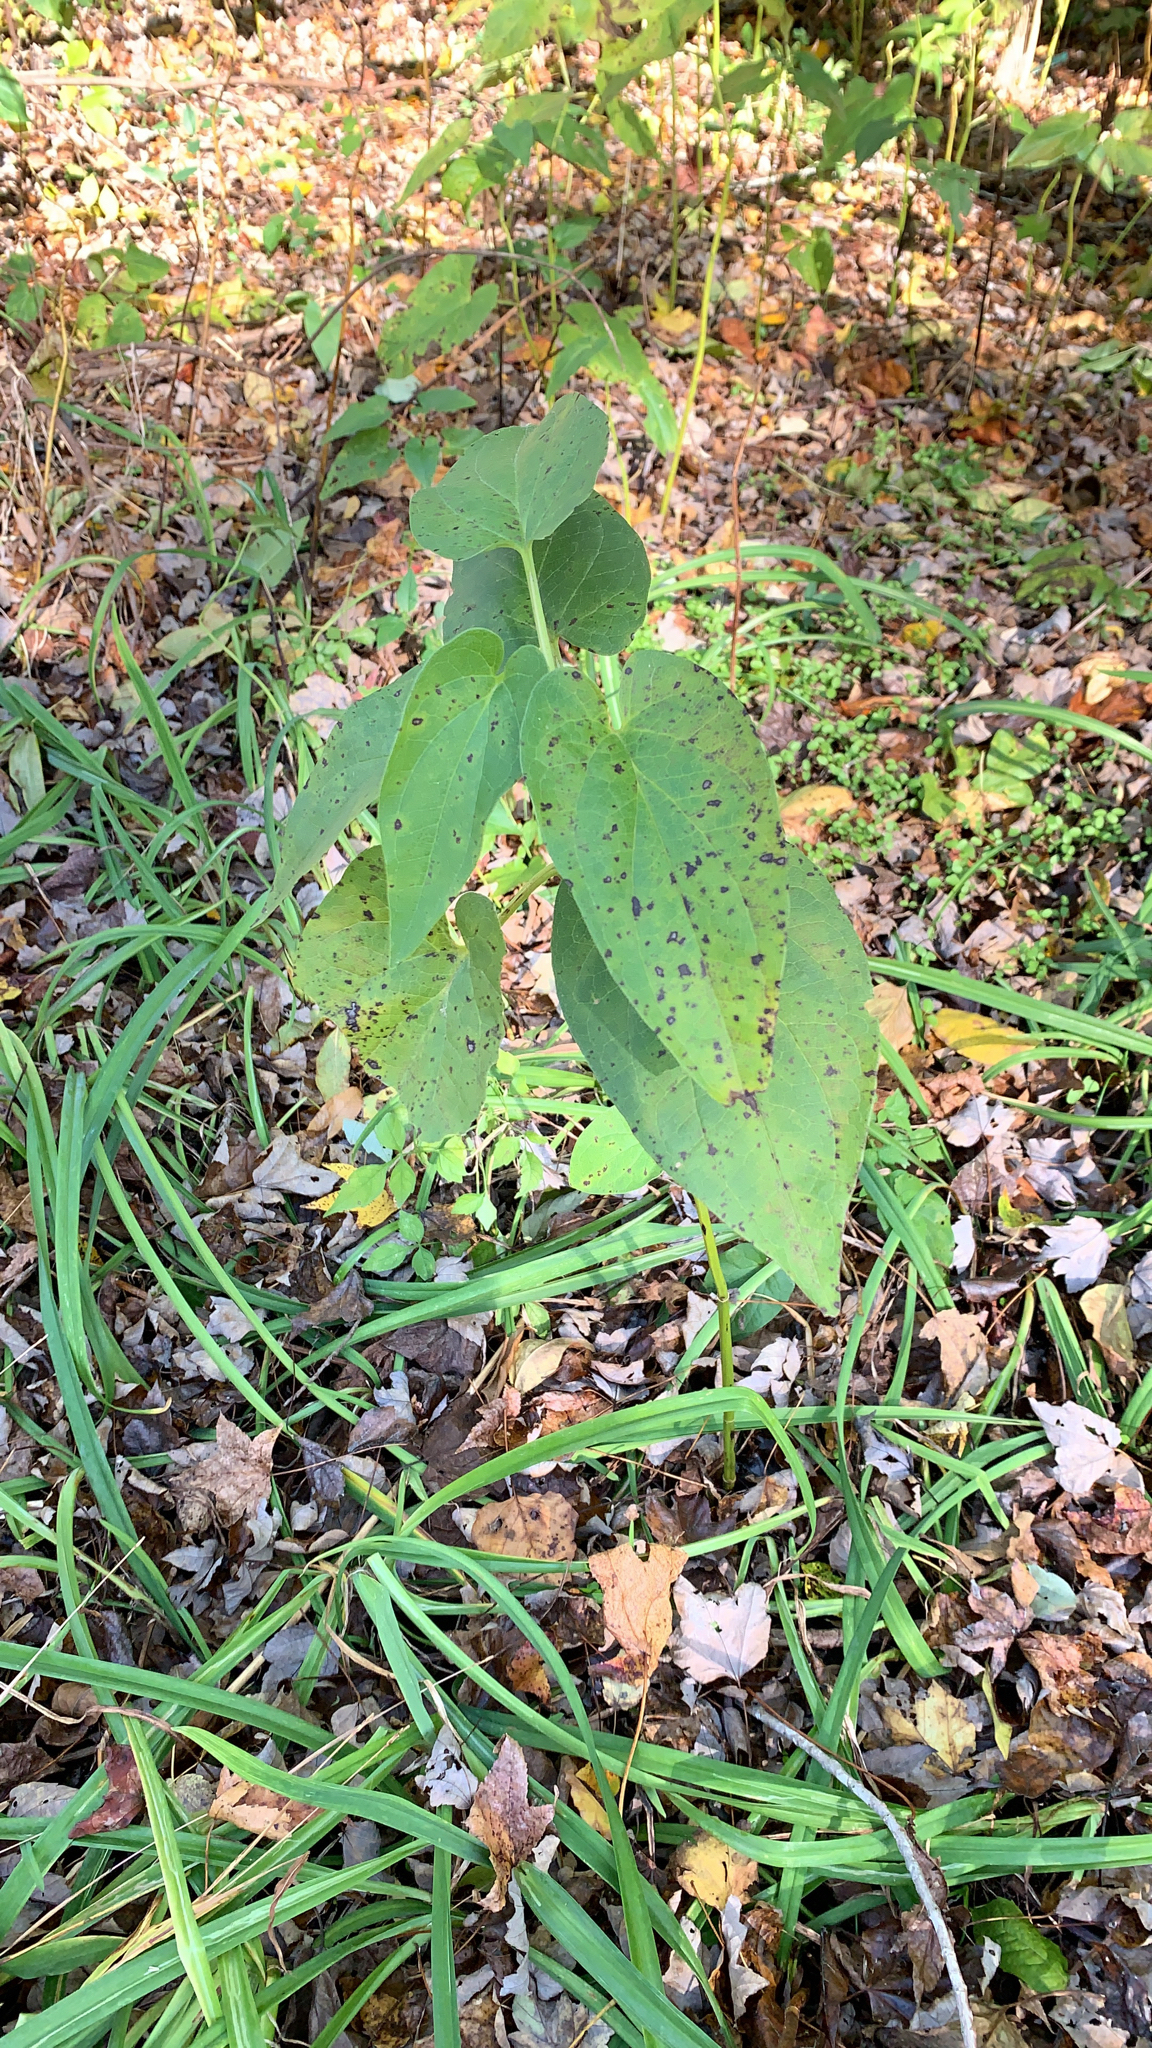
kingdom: Plantae
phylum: Tracheophyta
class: Magnoliopsida
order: Piperales
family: Saururaceae
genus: Saururus
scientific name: Saururus cernuus
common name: Lizard's-tail
